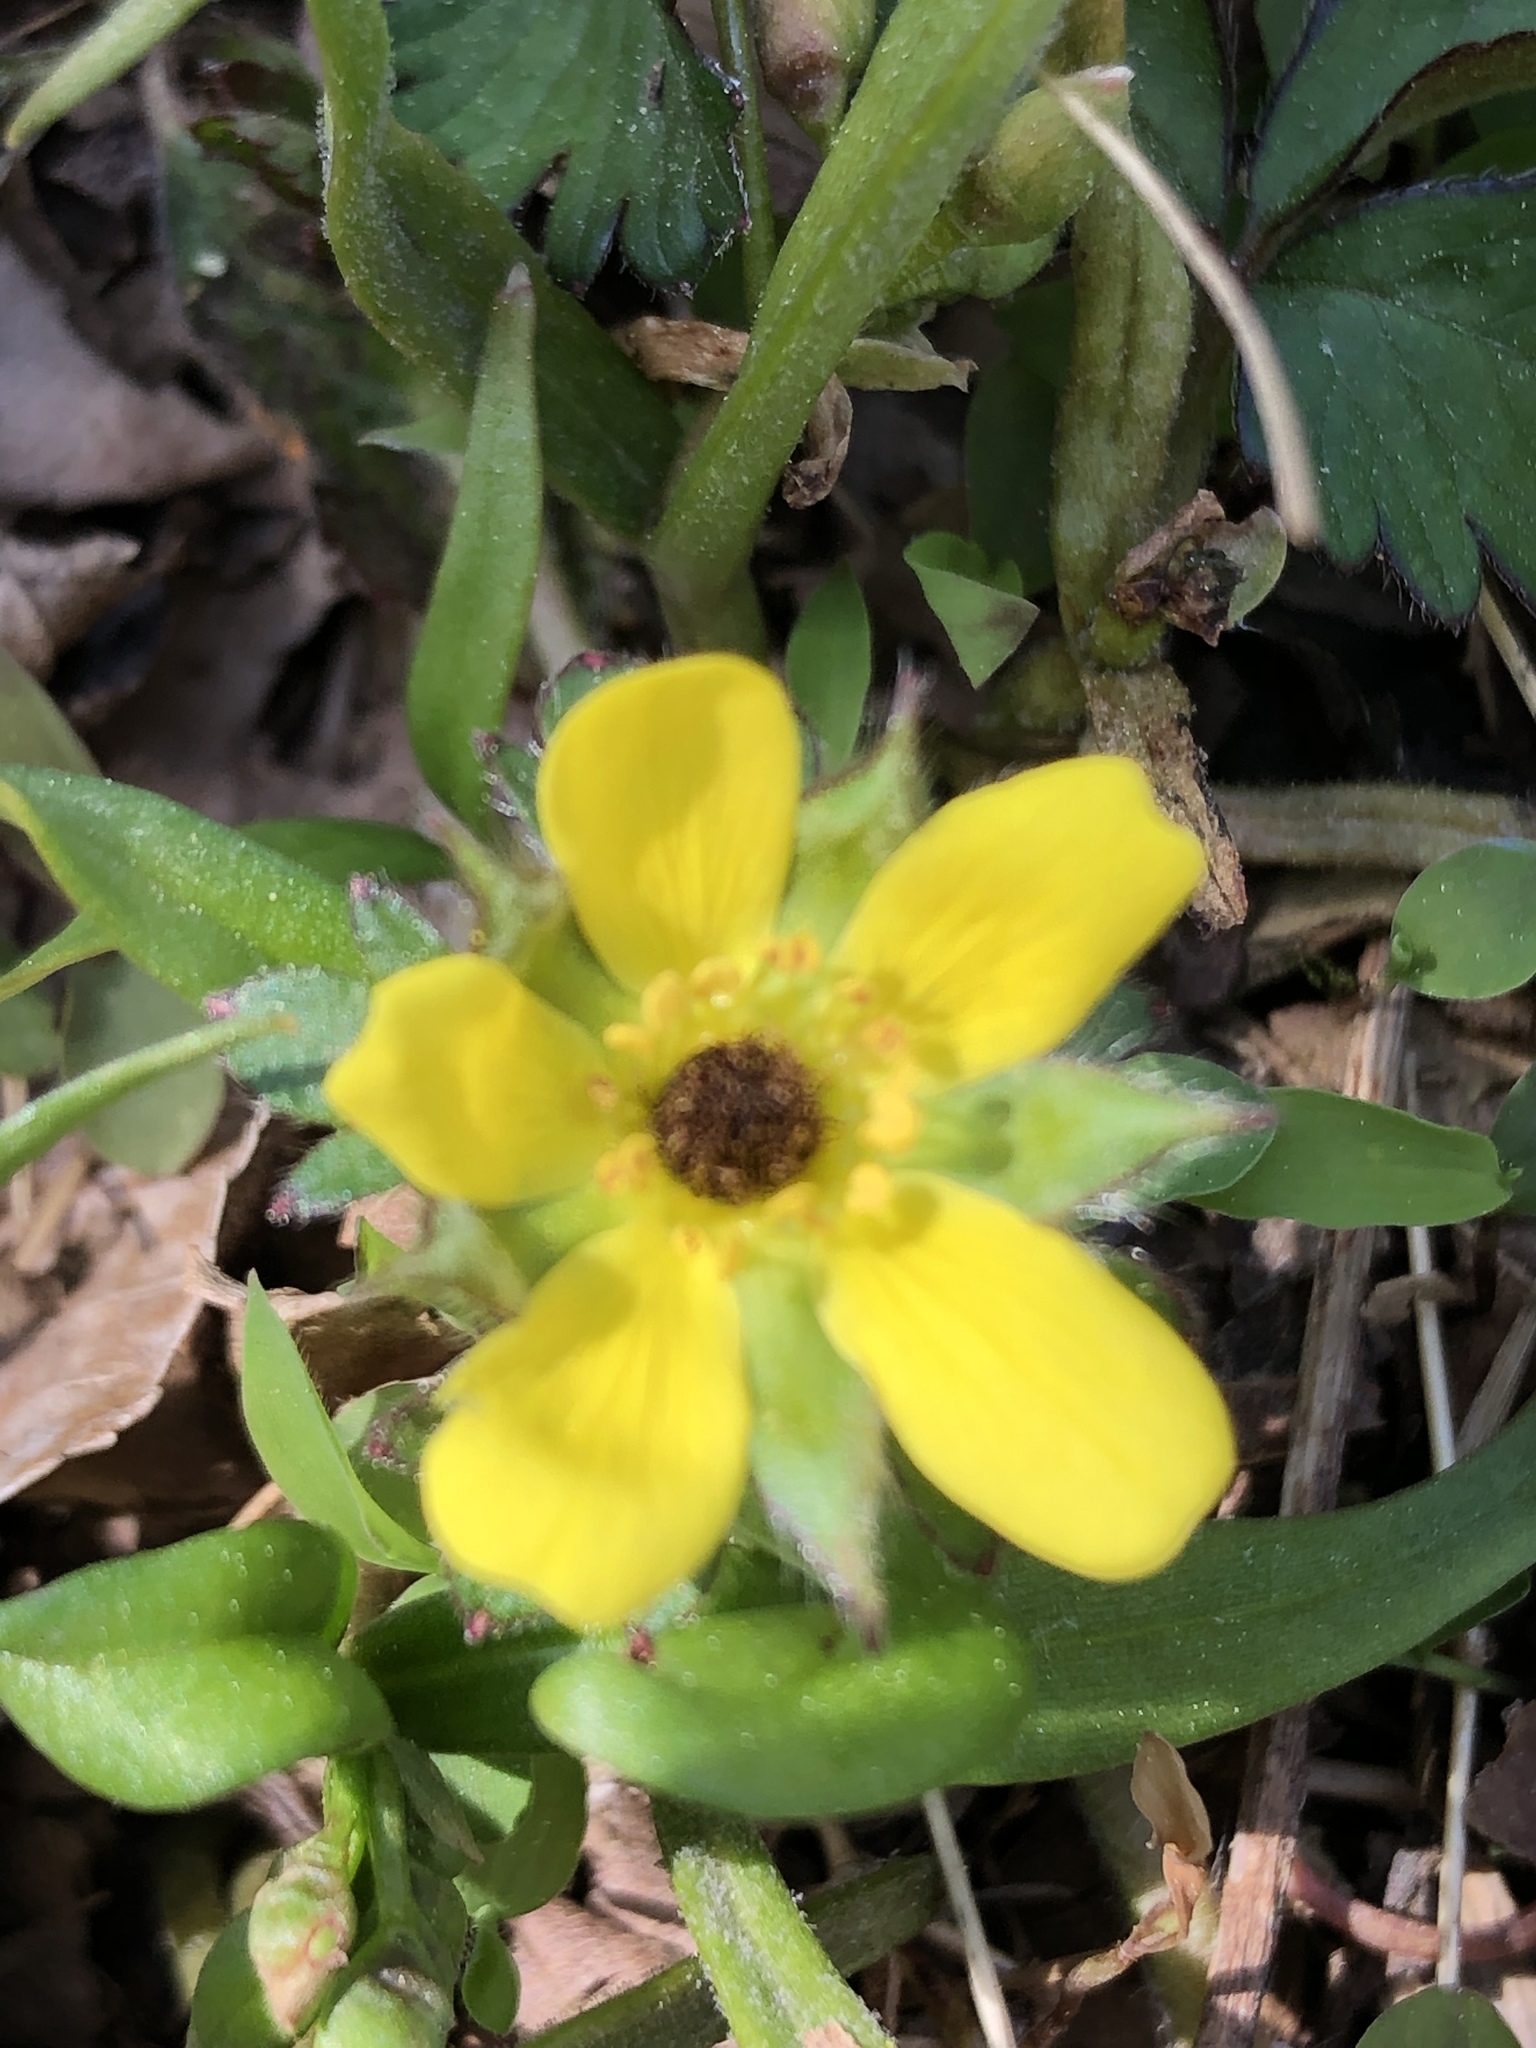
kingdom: Plantae
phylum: Tracheophyta
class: Magnoliopsida
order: Rosales
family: Rosaceae
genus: Potentilla
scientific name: Potentilla indica
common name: Yellow-flowered strawberry
